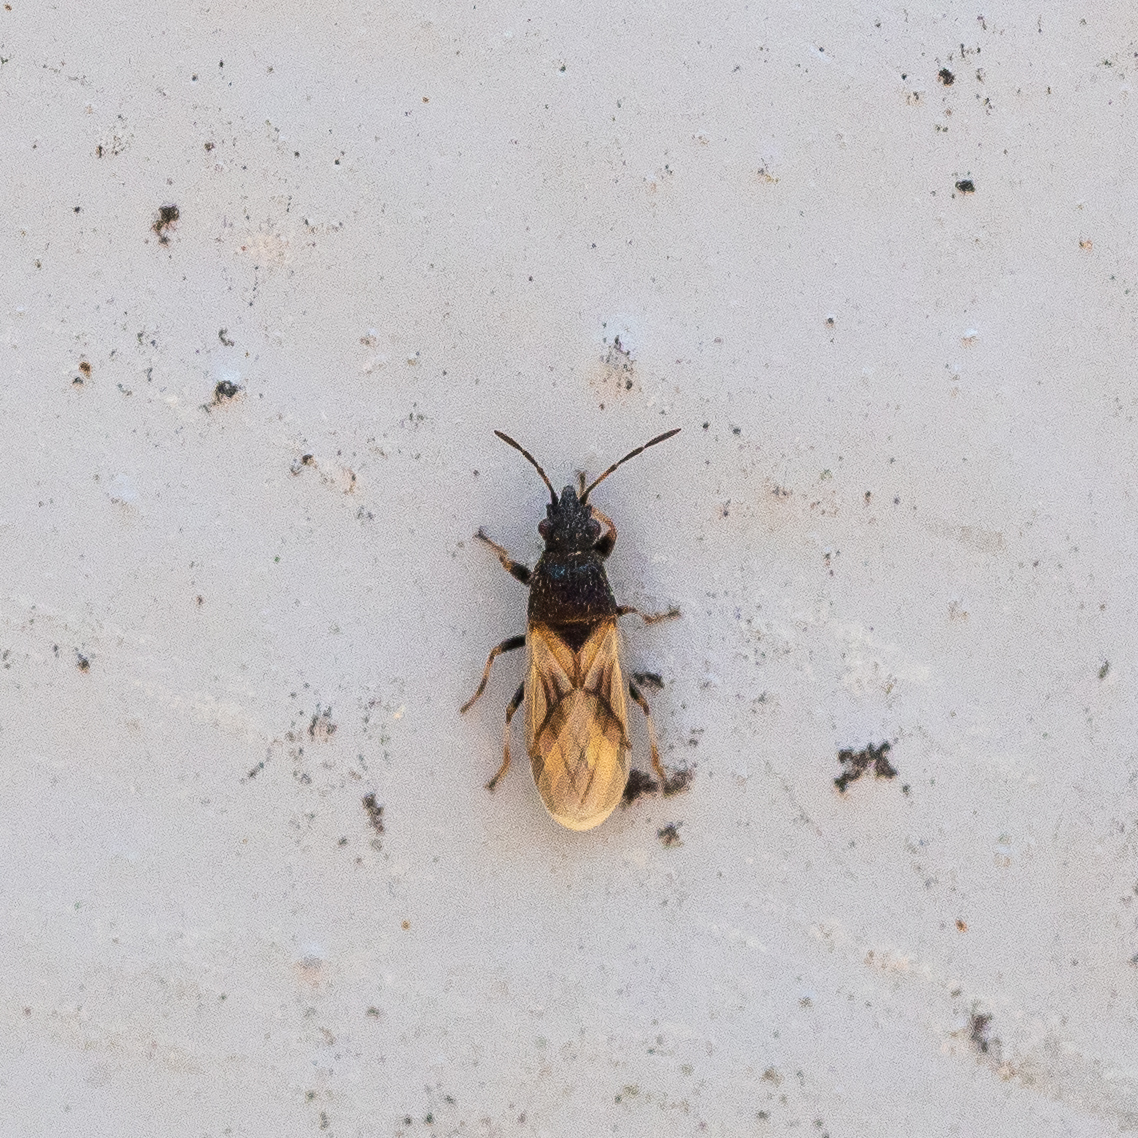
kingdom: Animalia
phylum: Arthropoda
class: Insecta
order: Hemiptera
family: Oxycarenidae
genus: Metopoplax
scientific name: Metopoplax origani
